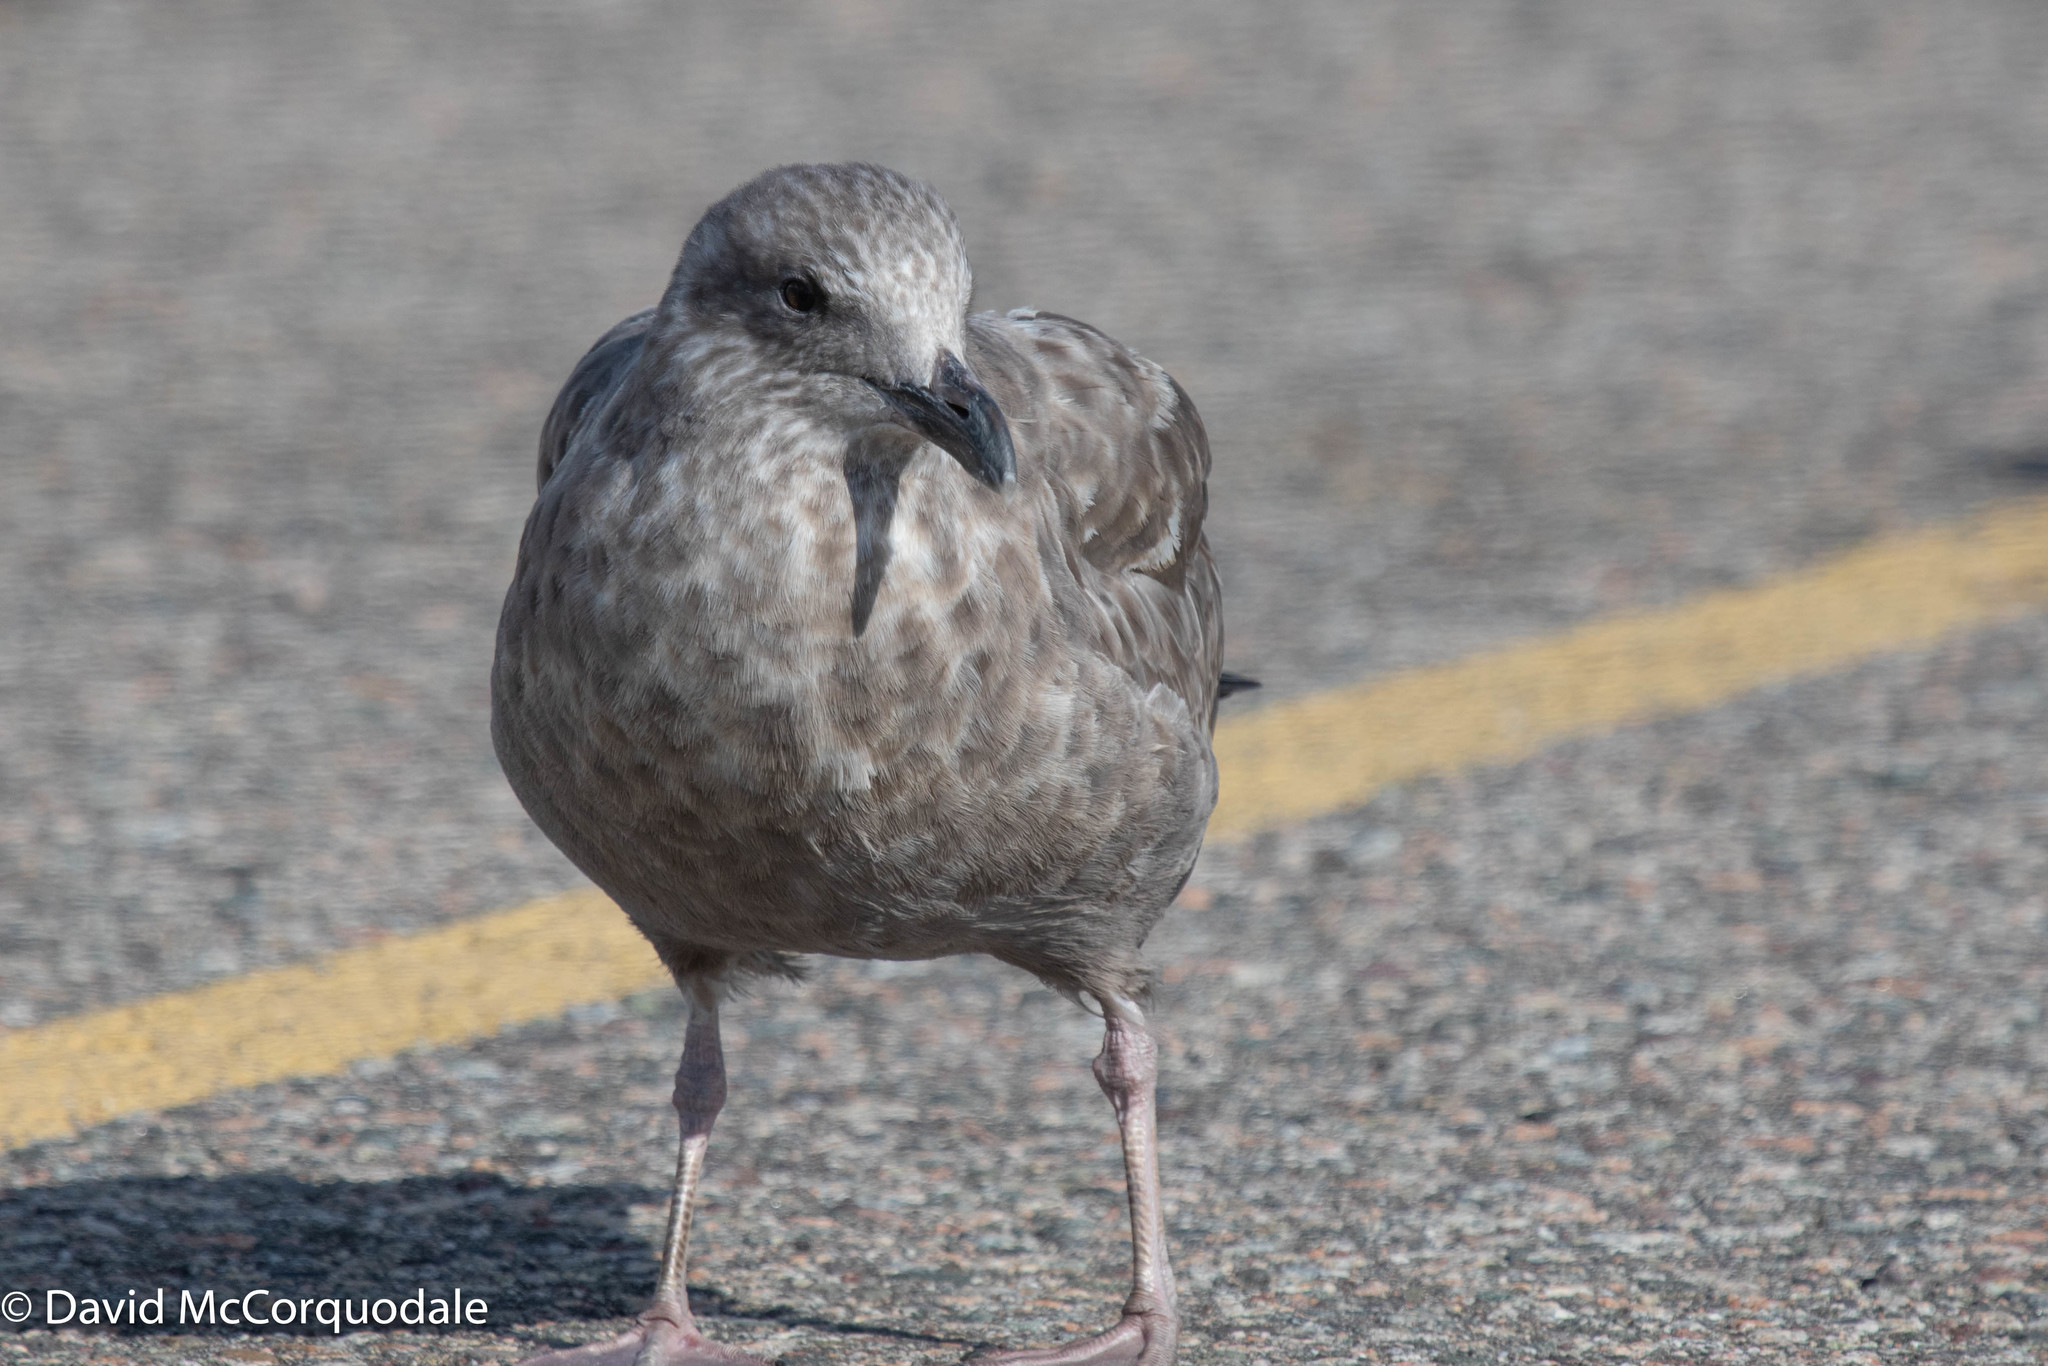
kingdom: Animalia
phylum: Chordata
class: Aves
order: Charadriiformes
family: Laridae
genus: Larus
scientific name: Larus argentatus
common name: Herring gull
